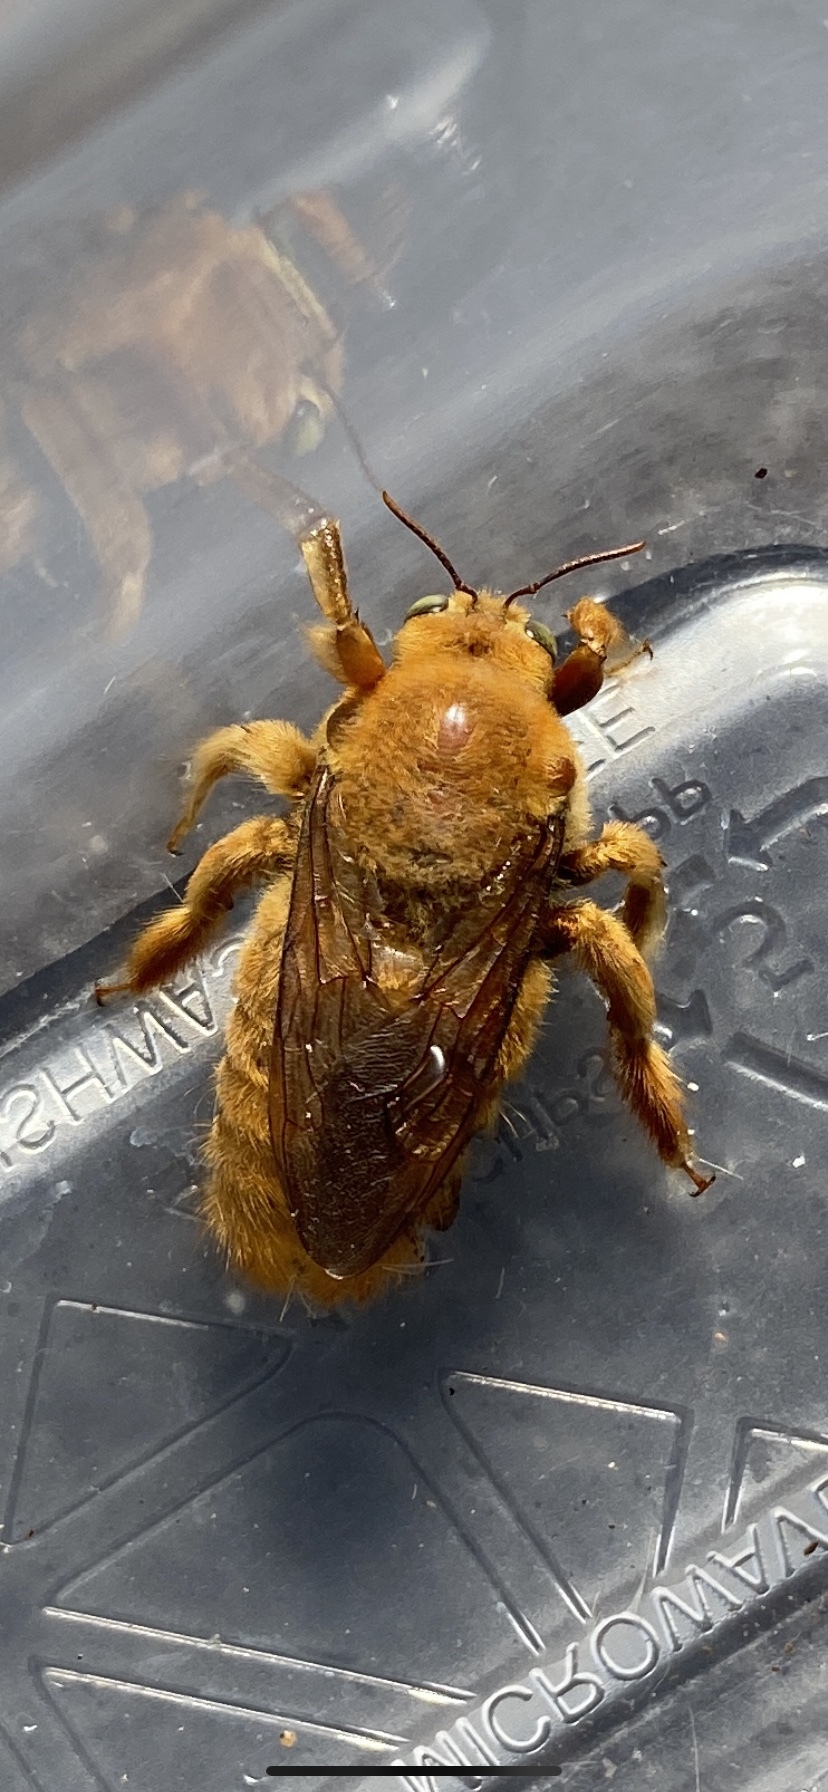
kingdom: Animalia
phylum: Arthropoda
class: Insecta
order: Hymenoptera
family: Apidae
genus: Xylocopa
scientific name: Xylocopa sonorina
